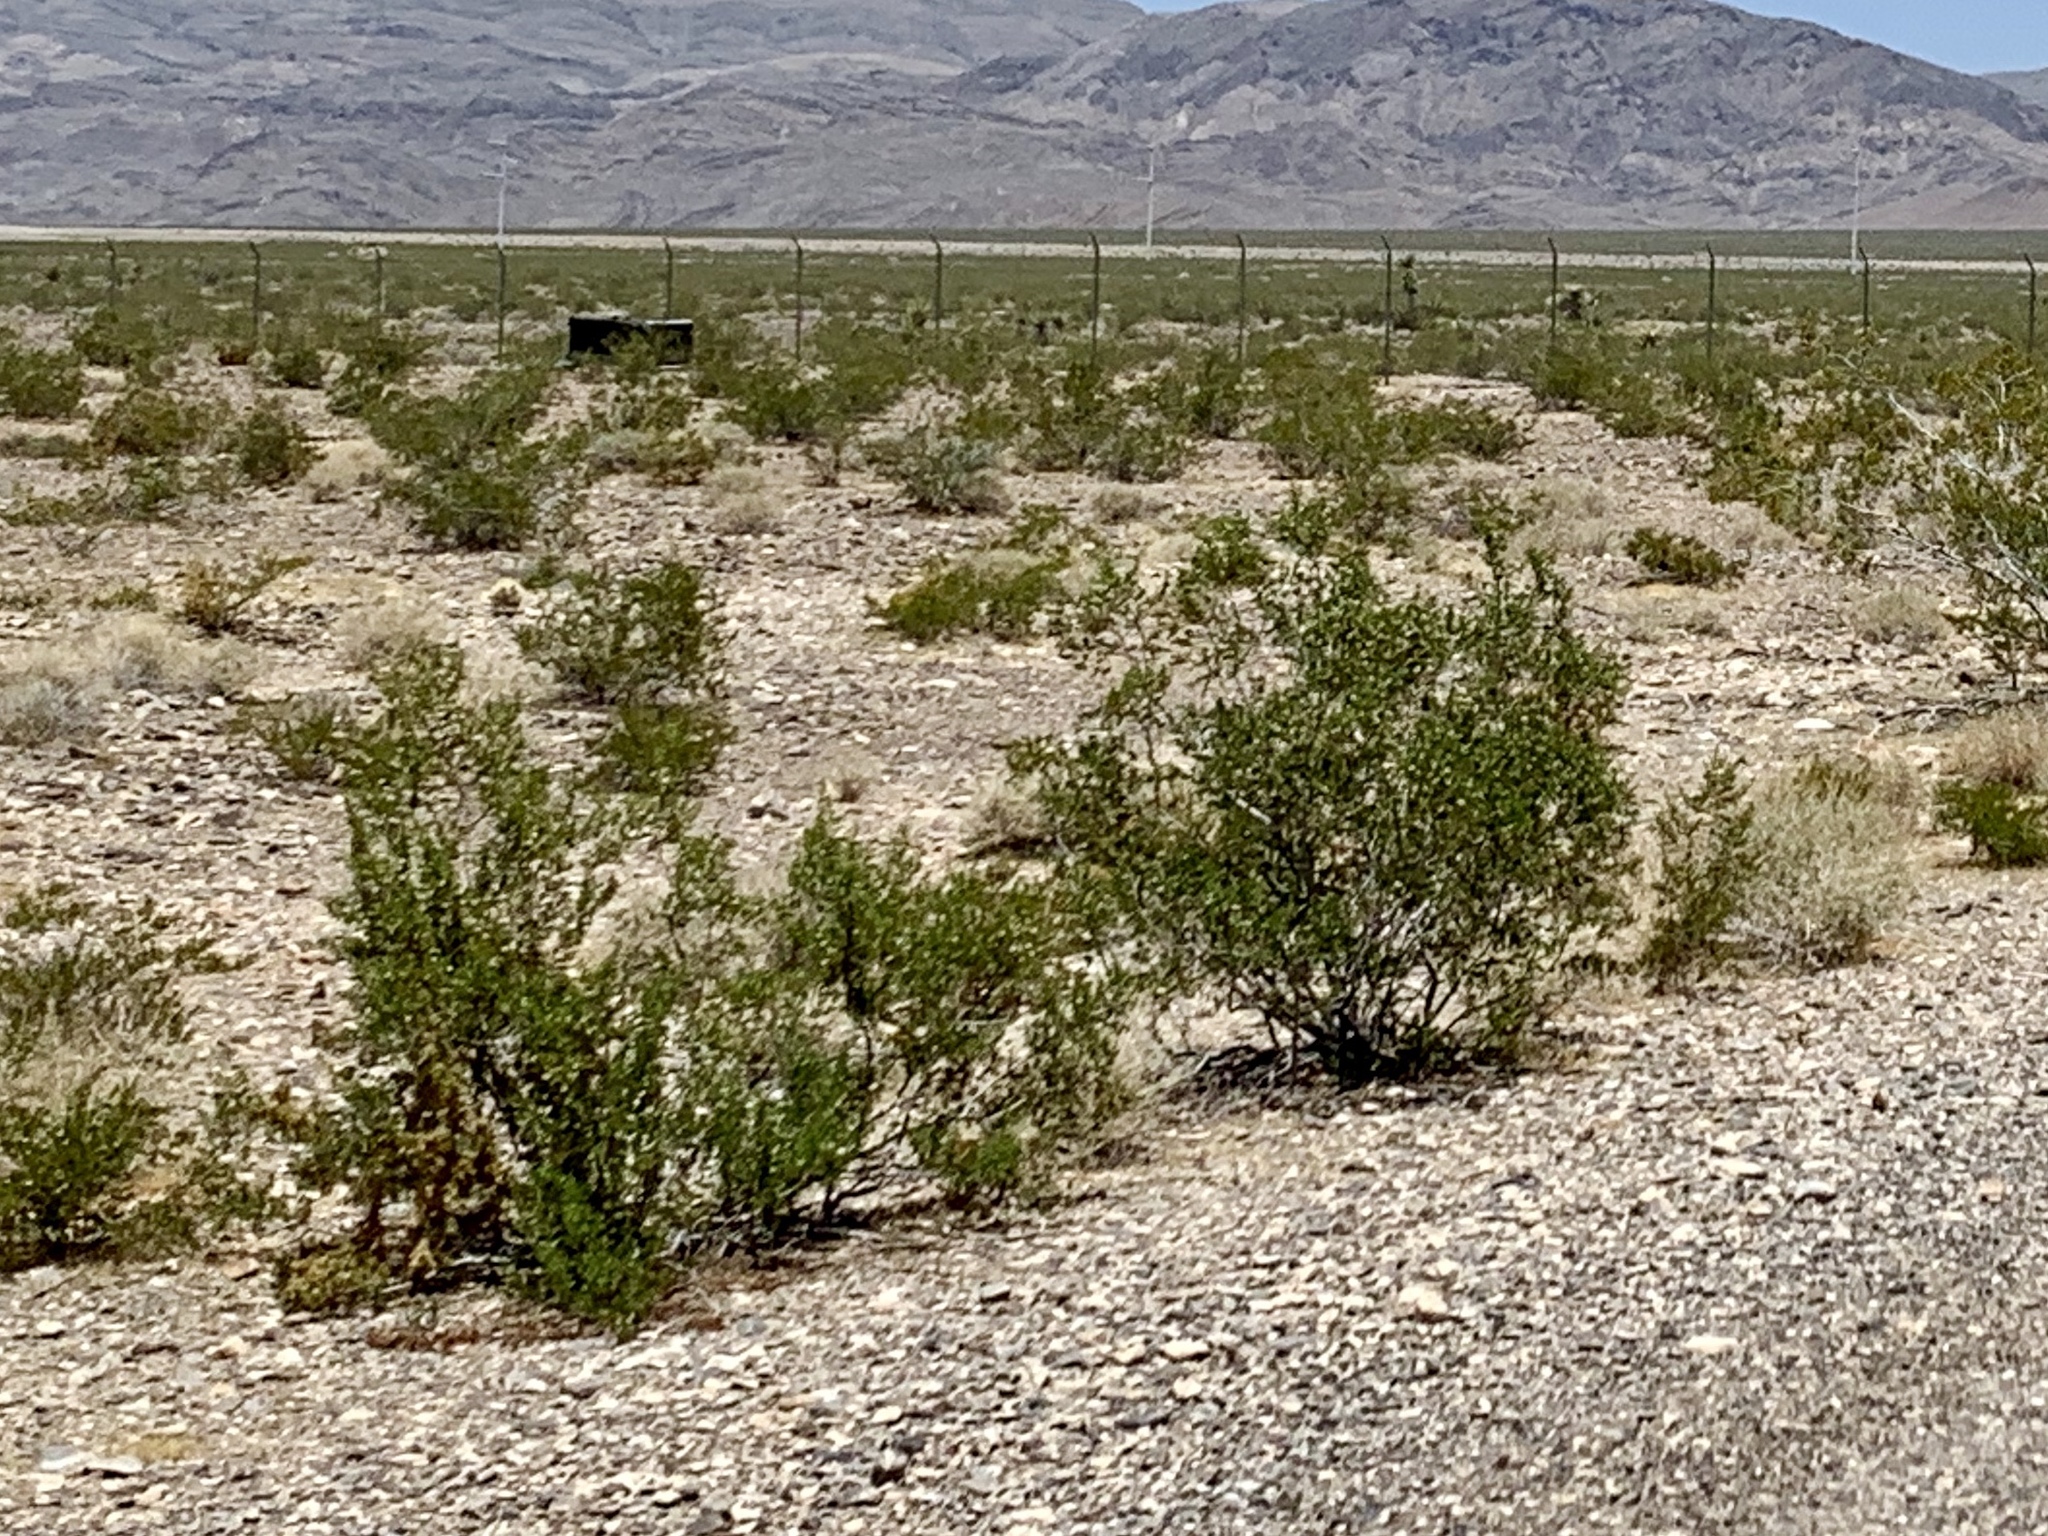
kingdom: Plantae
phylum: Tracheophyta
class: Magnoliopsida
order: Zygophyllales
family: Zygophyllaceae
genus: Larrea
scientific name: Larrea tridentata
